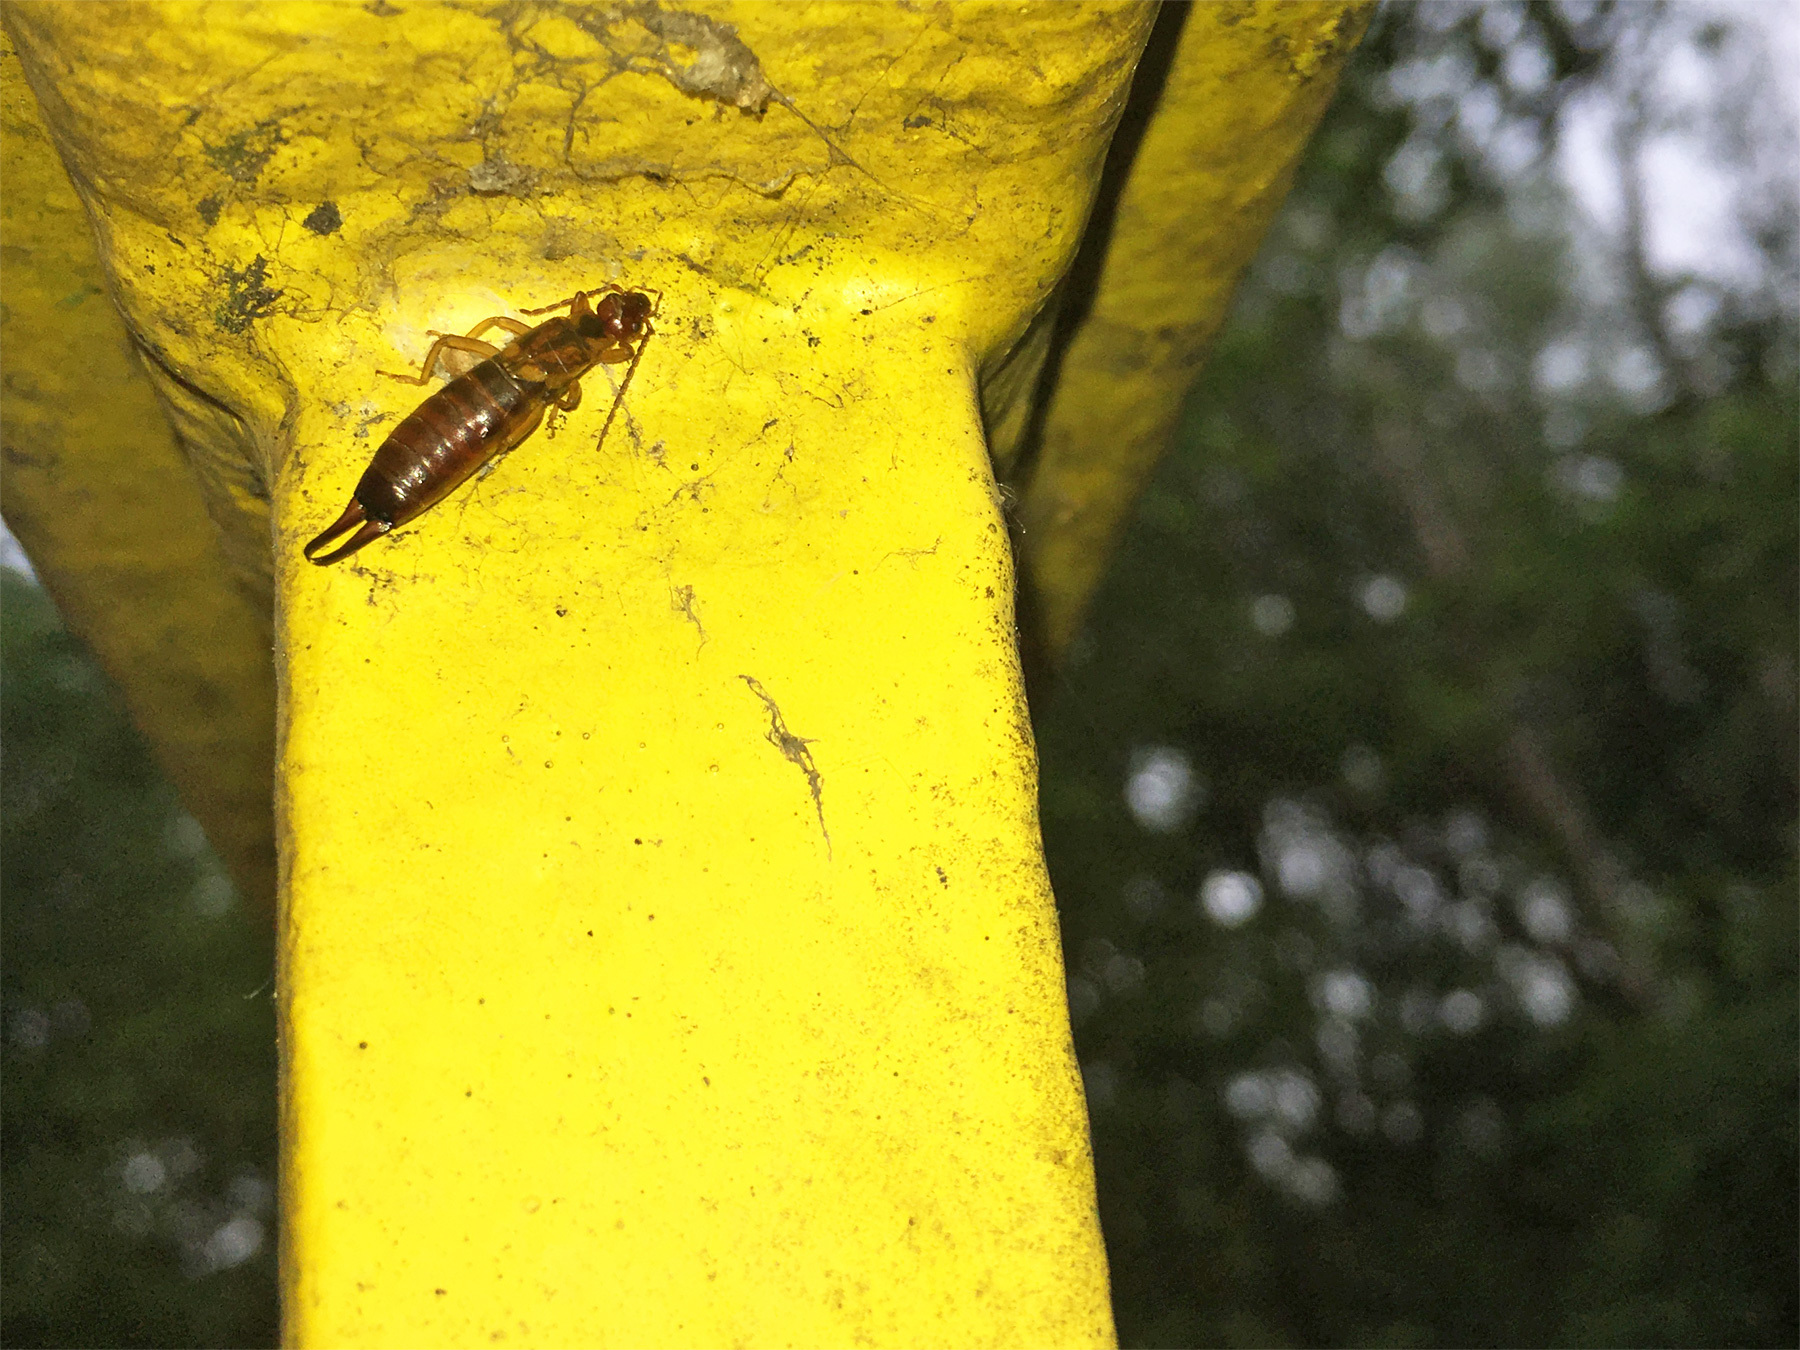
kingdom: Animalia
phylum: Arthropoda
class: Insecta
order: Dermaptera
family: Forficulidae
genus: Forficula
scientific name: Forficula
